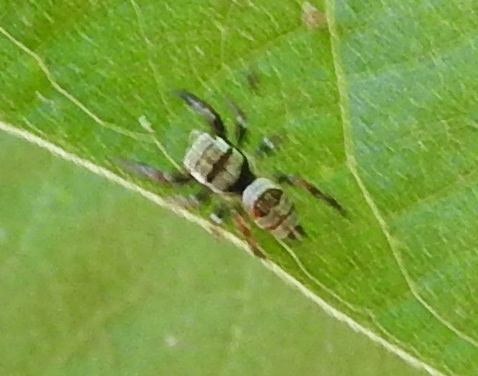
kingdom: Animalia
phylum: Arthropoda
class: Arachnida
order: Araneae
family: Salticidae
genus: Sassacus
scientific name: Sassacus
